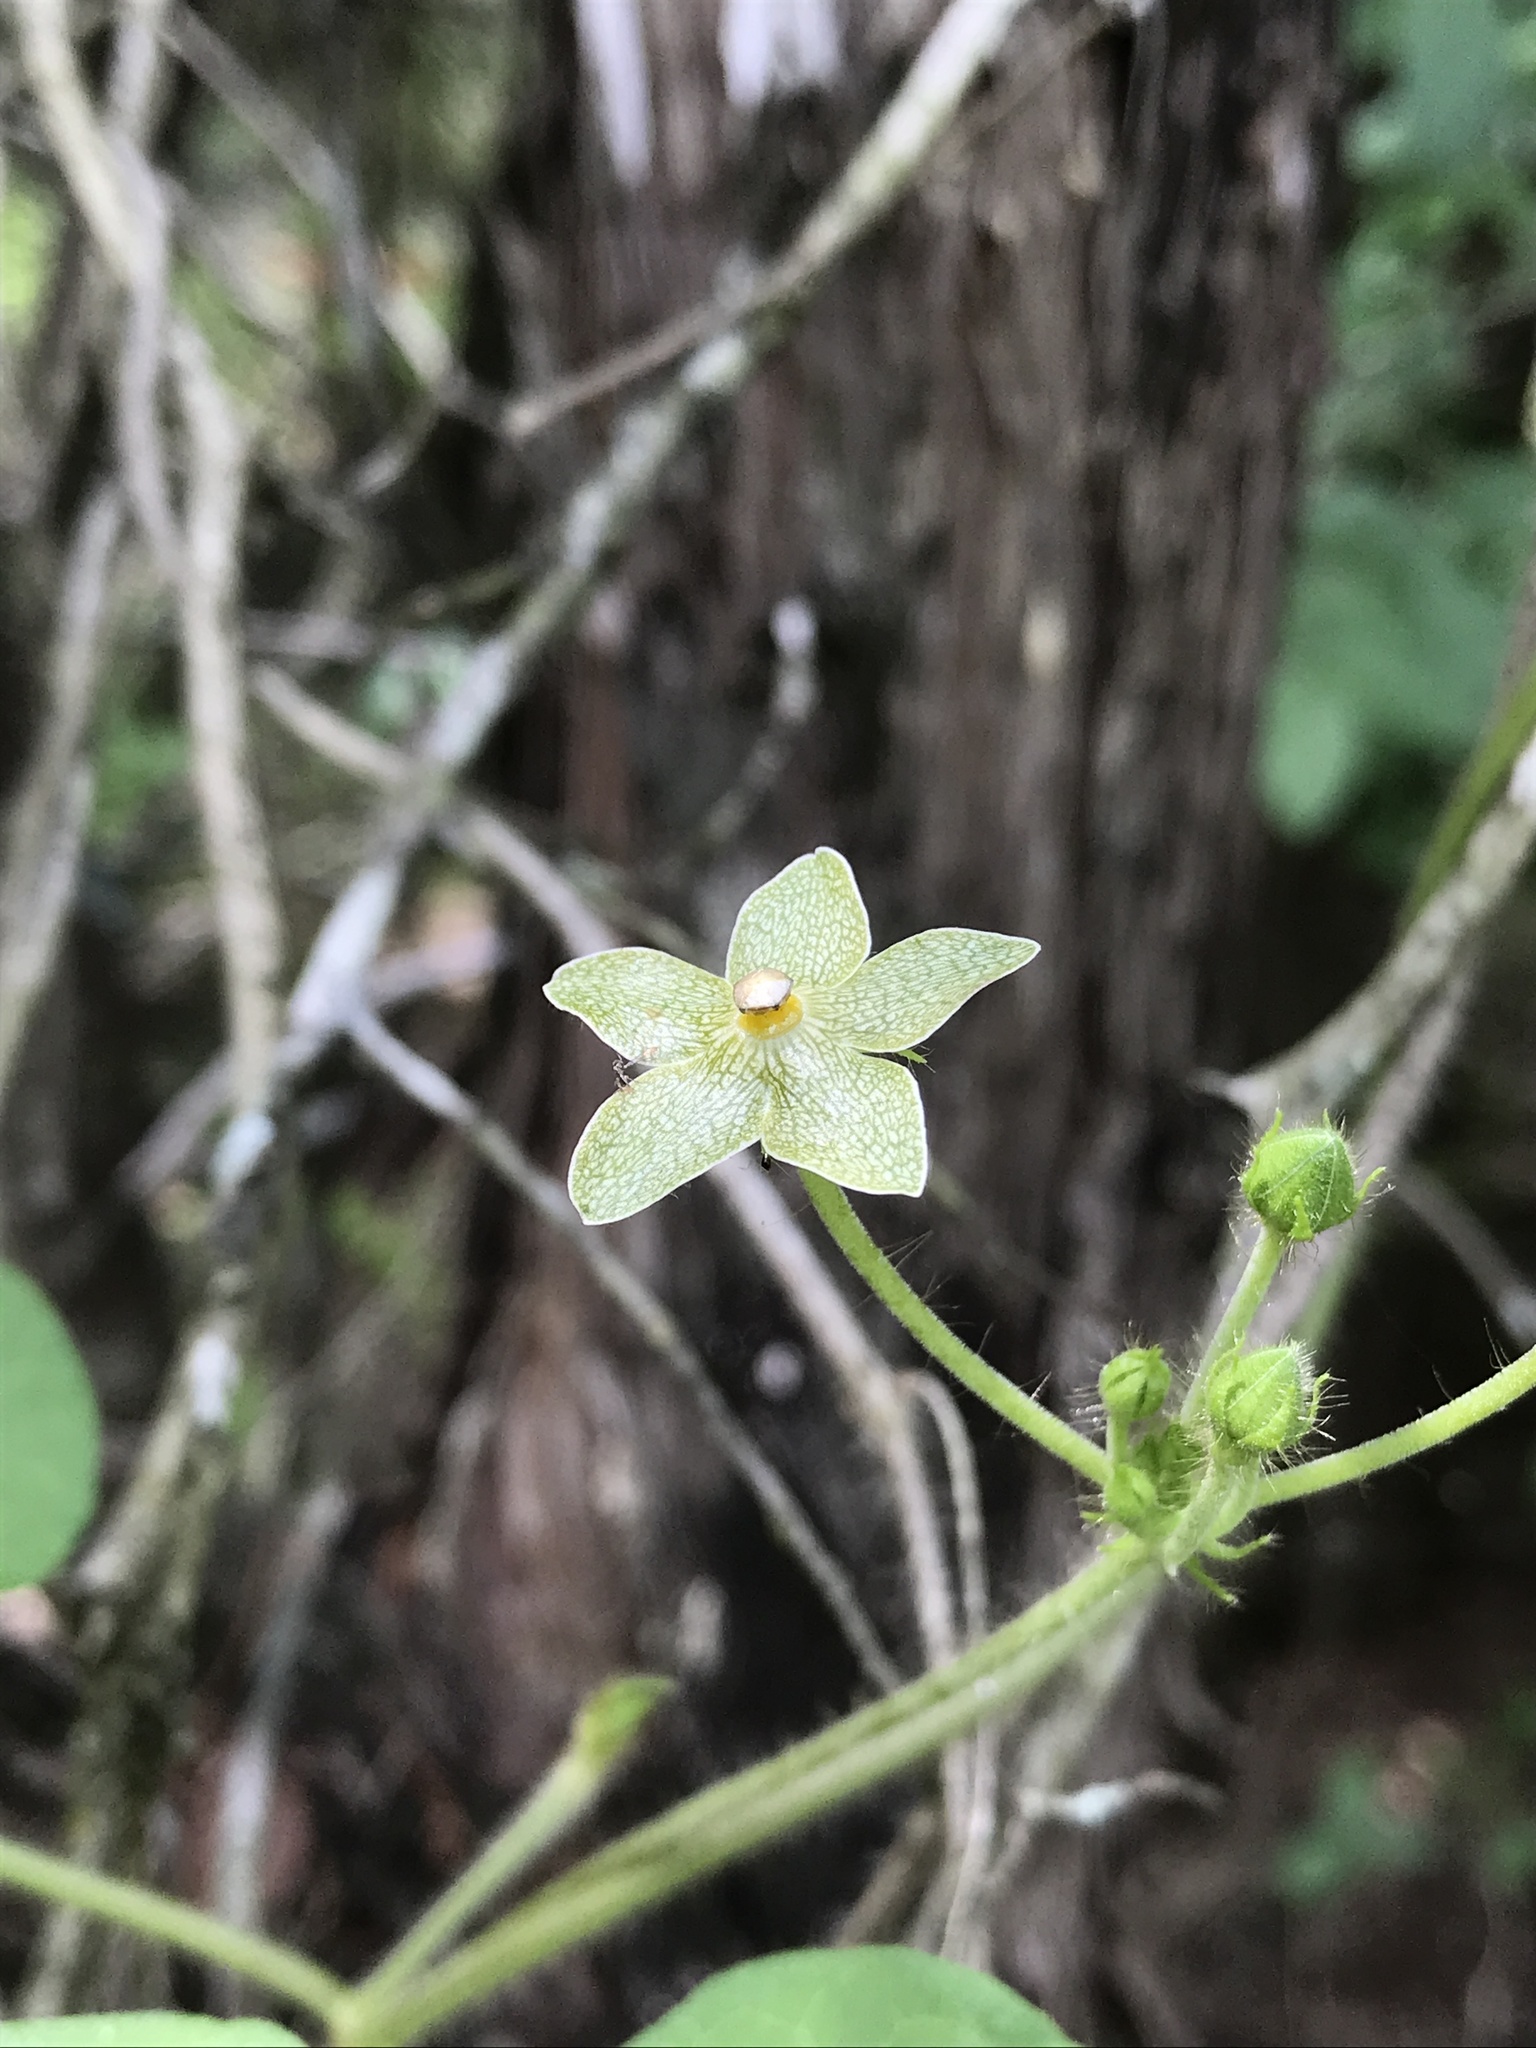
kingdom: Plantae
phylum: Tracheophyta
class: Magnoliopsida
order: Gentianales
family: Apocynaceae
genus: Dictyanthus
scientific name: Dictyanthus reticulatus
